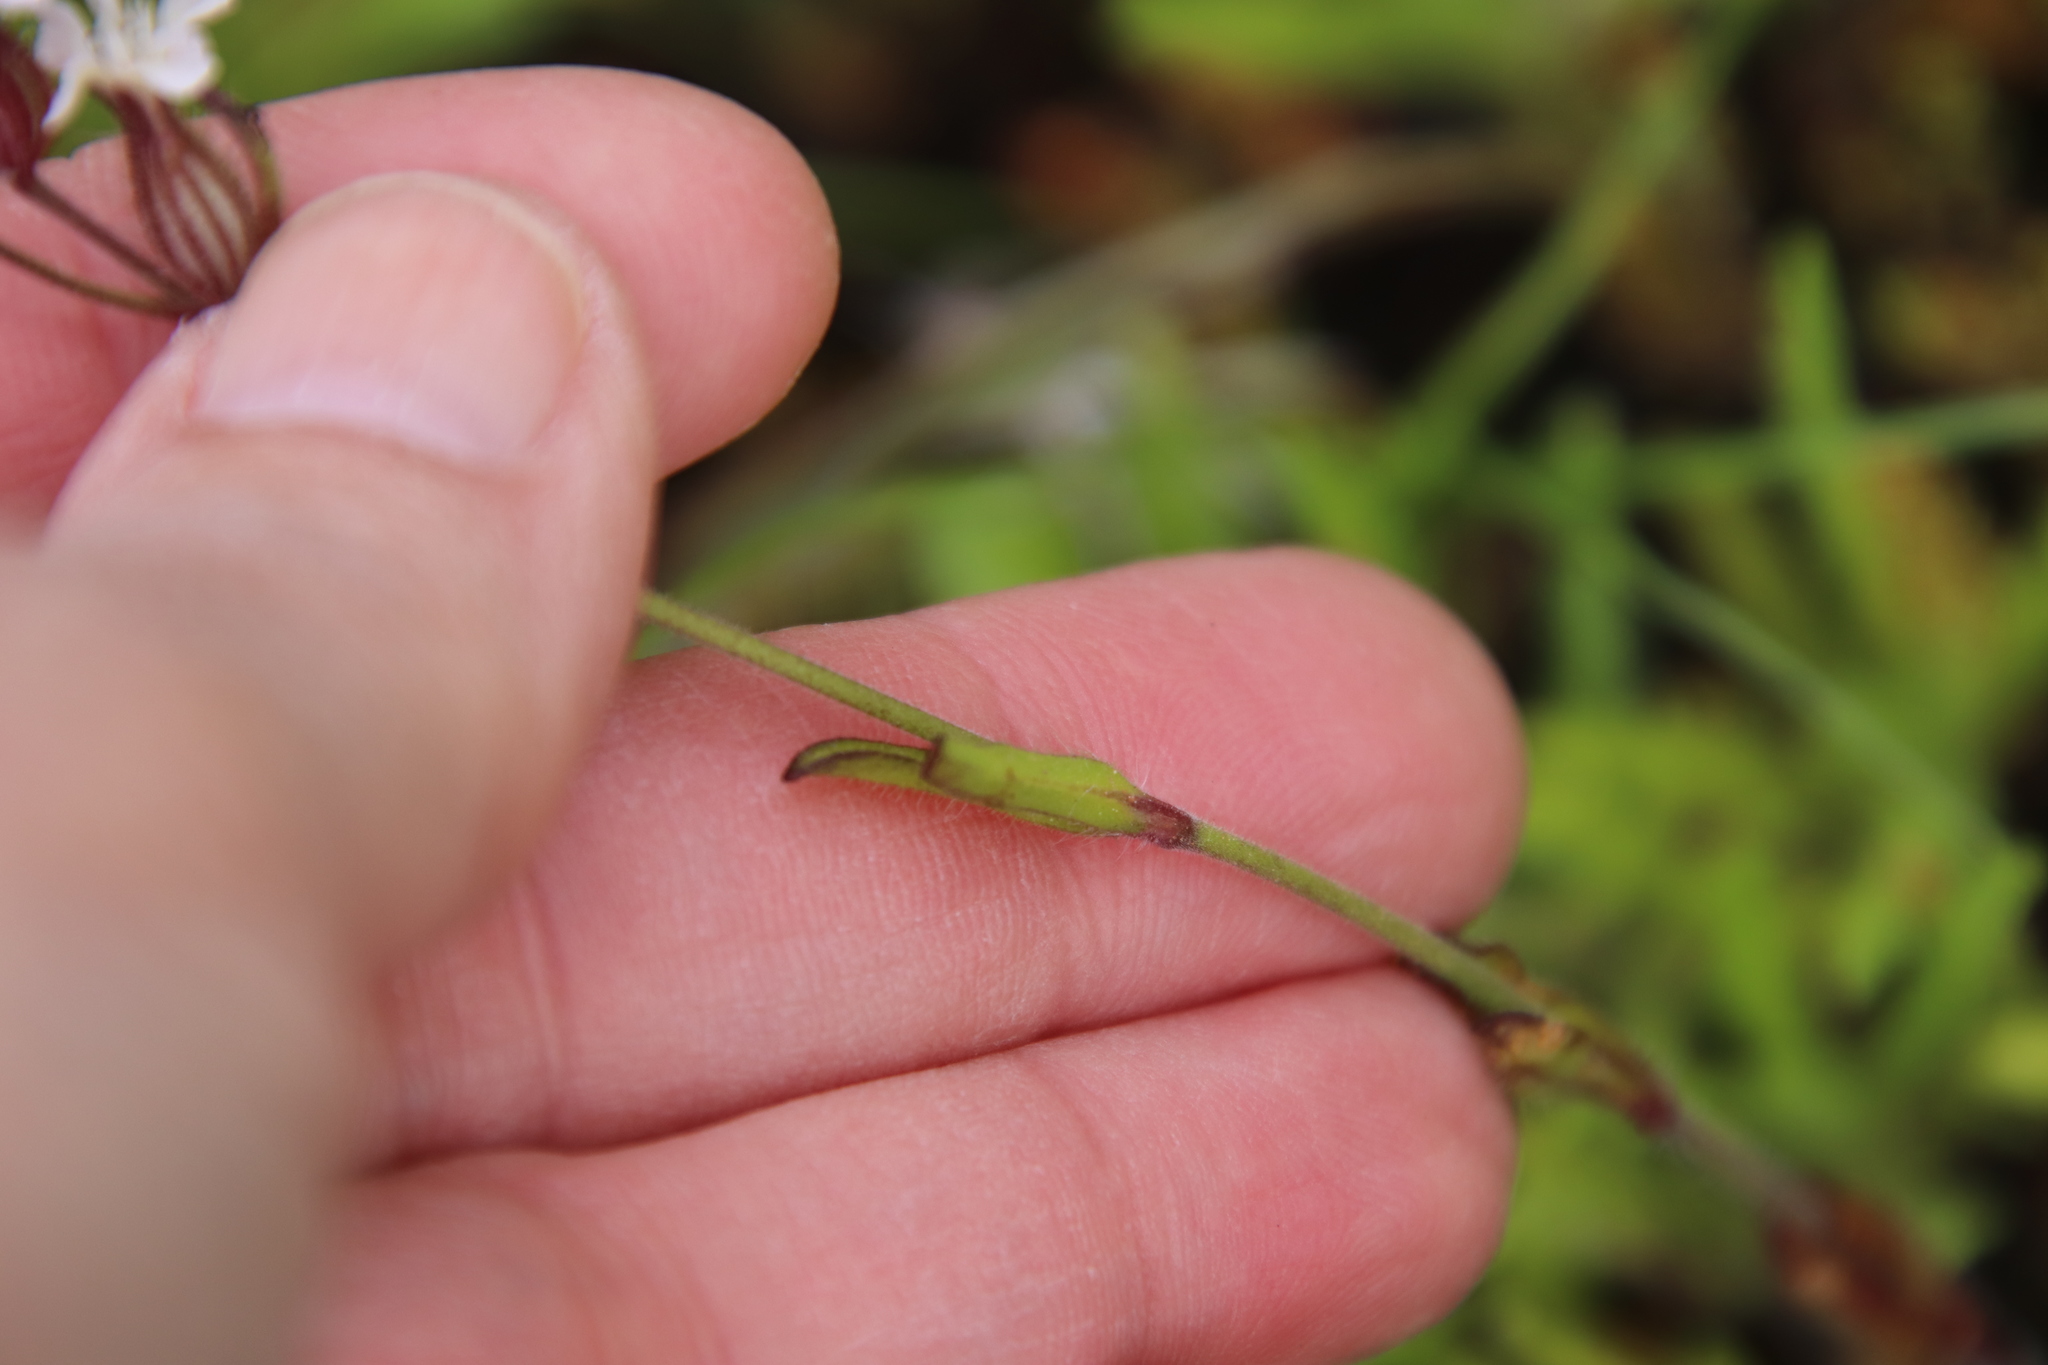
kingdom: Plantae
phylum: Tracheophyta
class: Magnoliopsida
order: Caryophyllales
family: Caryophyllaceae
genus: Silene
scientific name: Silene gallica
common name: Small-flowered catchfly
